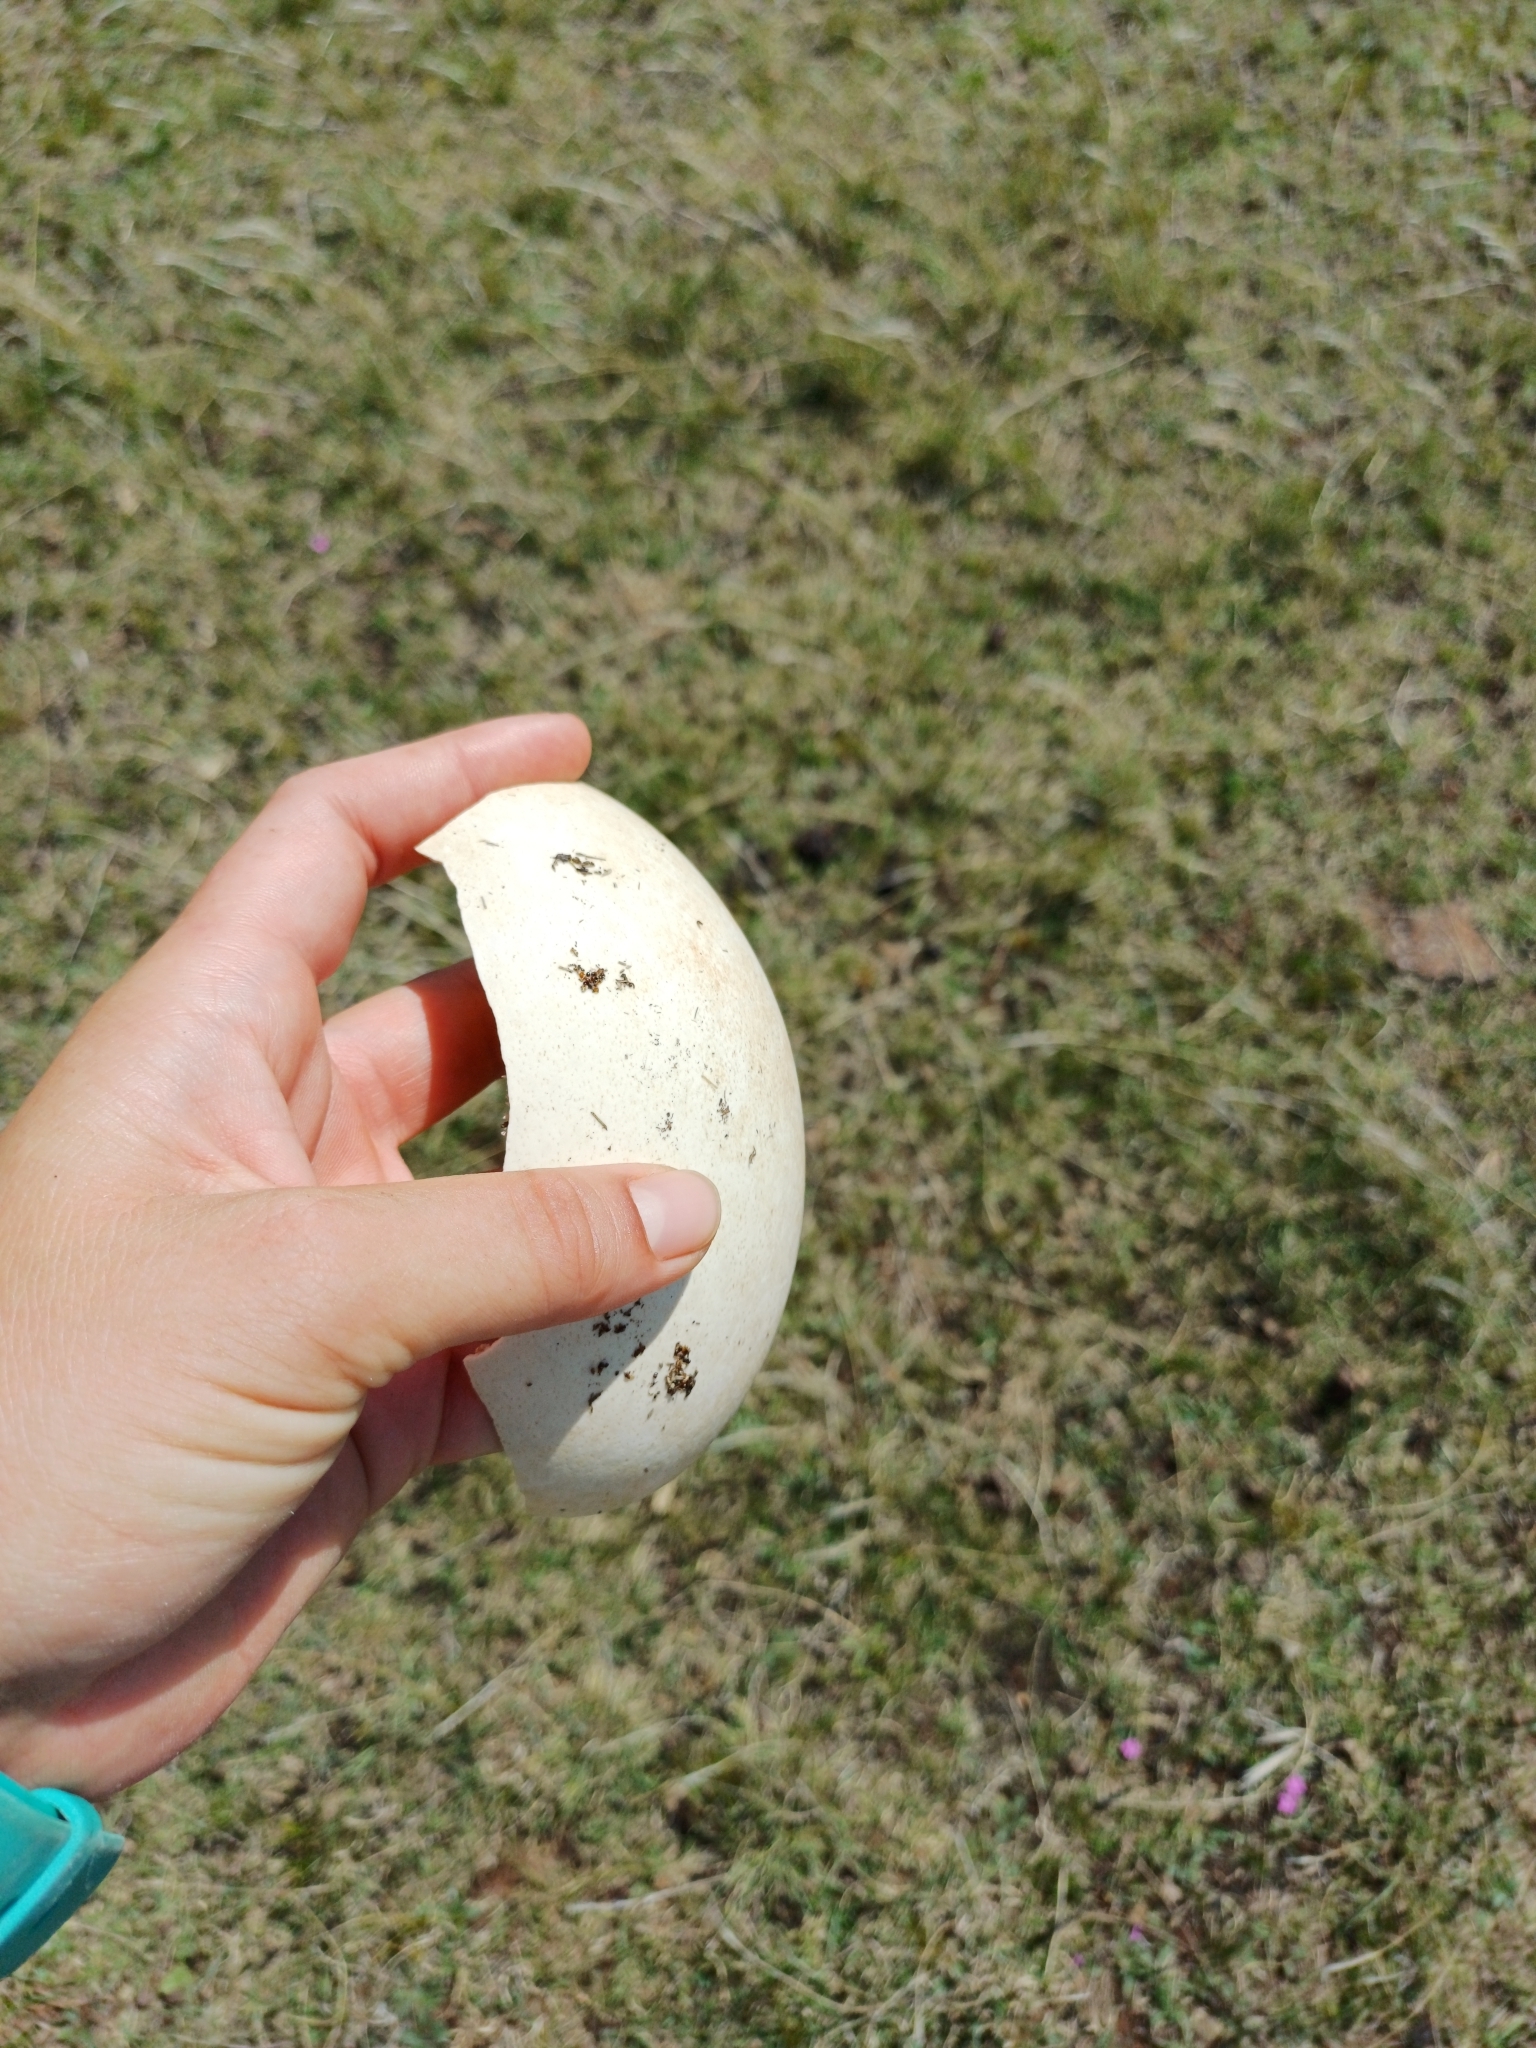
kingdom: Animalia
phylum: Chordata
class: Aves
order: Rheiformes
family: Rheidae
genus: Rhea
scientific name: Rhea americana
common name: Greater rhea
